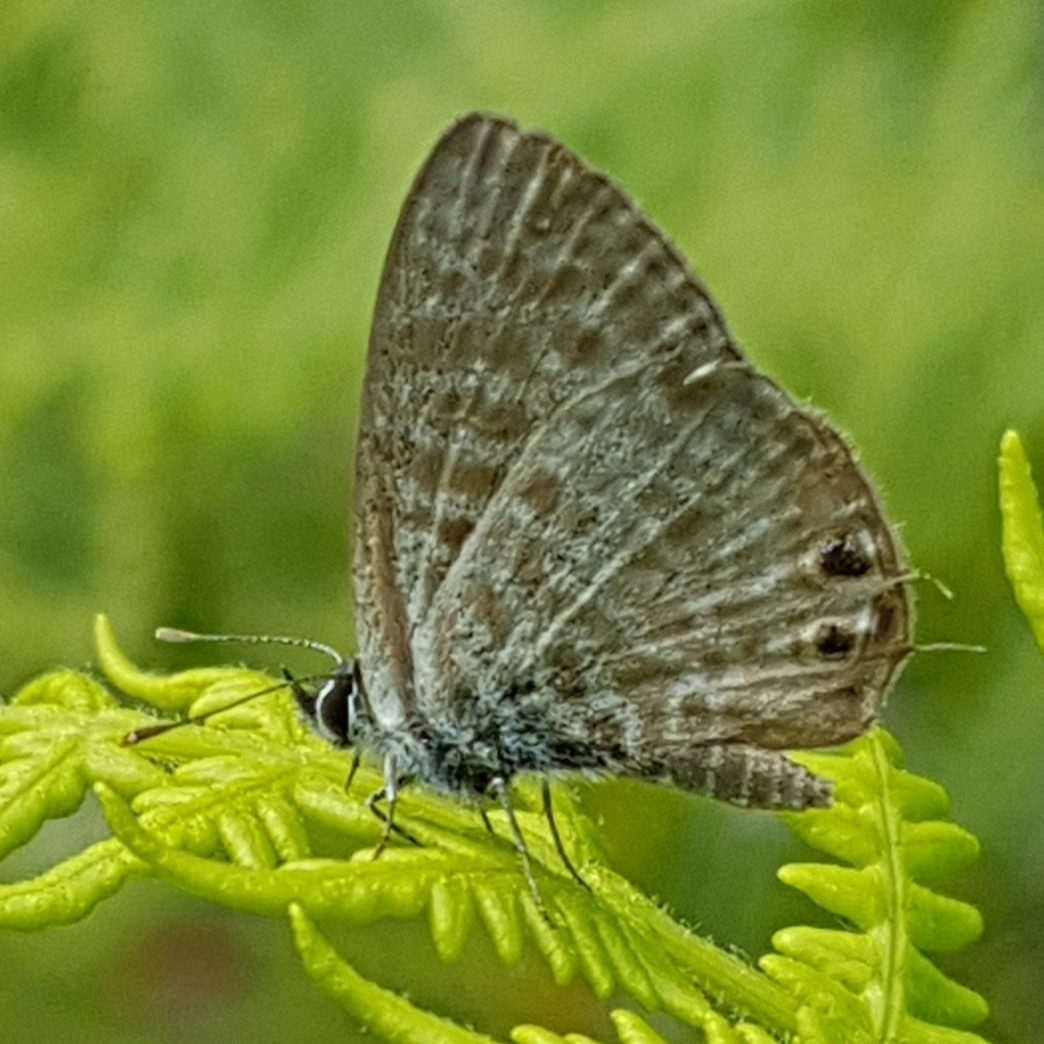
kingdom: Animalia
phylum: Arthropoda
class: Insecta
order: Lepidoptera
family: Lycaenidae
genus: Leptotes
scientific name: Leptotes pirithous
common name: Lang's short-tailed blue
